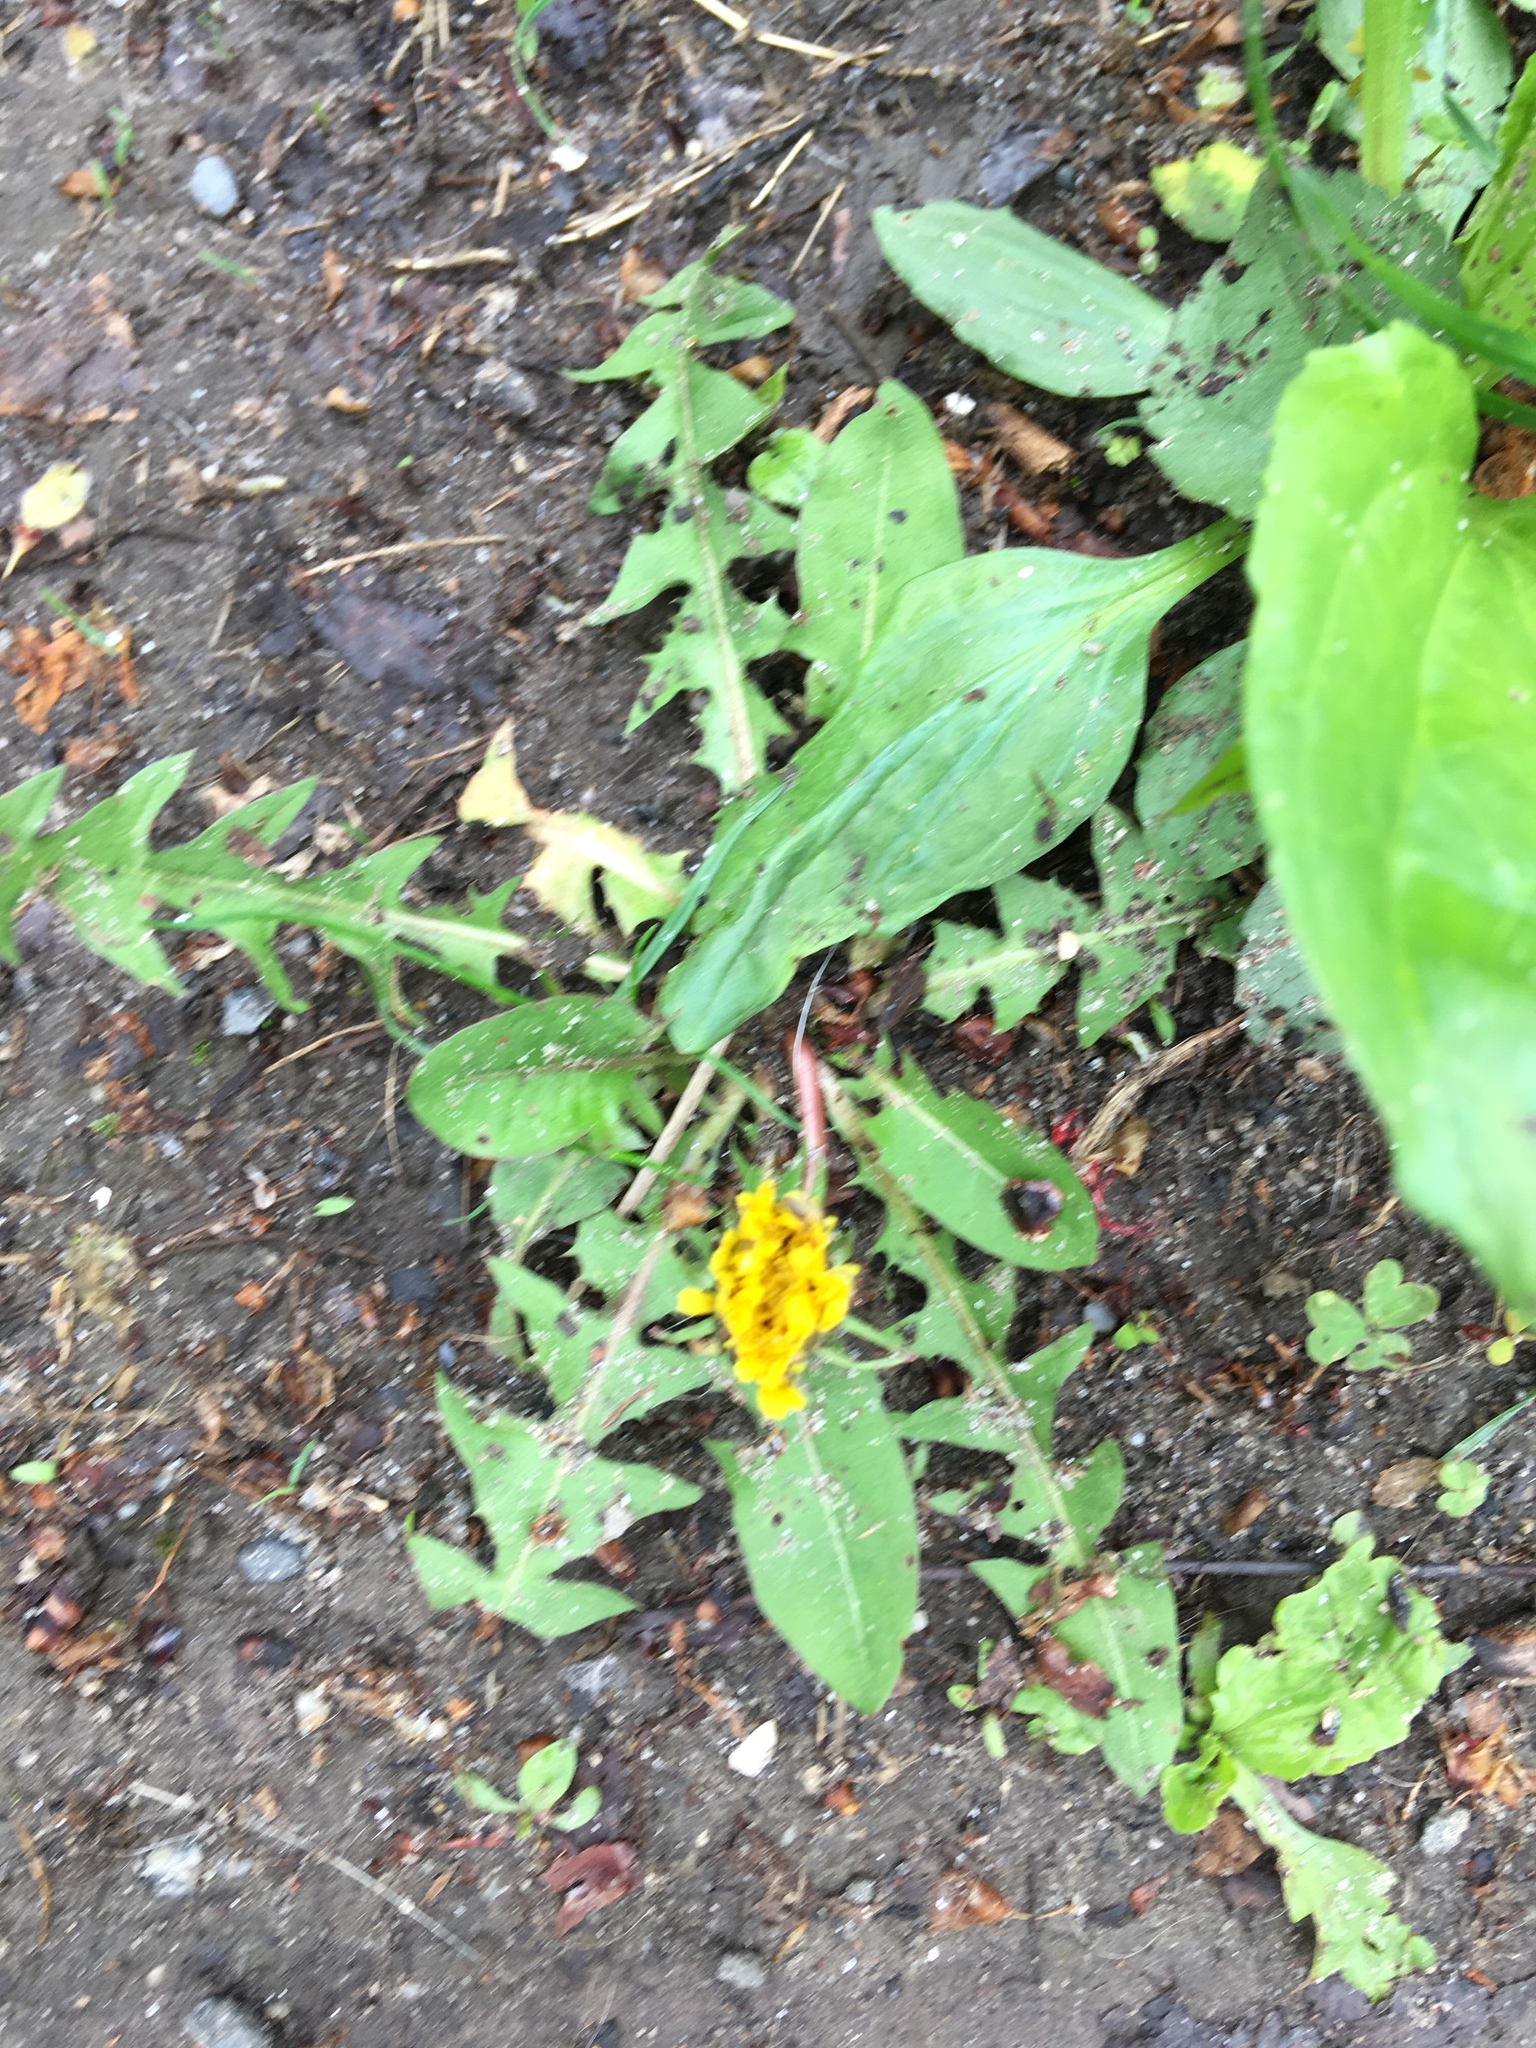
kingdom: Plantae
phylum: Tracheophyta
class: Magnoliopsida
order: Asterales
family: Asteraceae
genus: Taraxacum
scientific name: Taraxacum officinale
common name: Common dandelion
